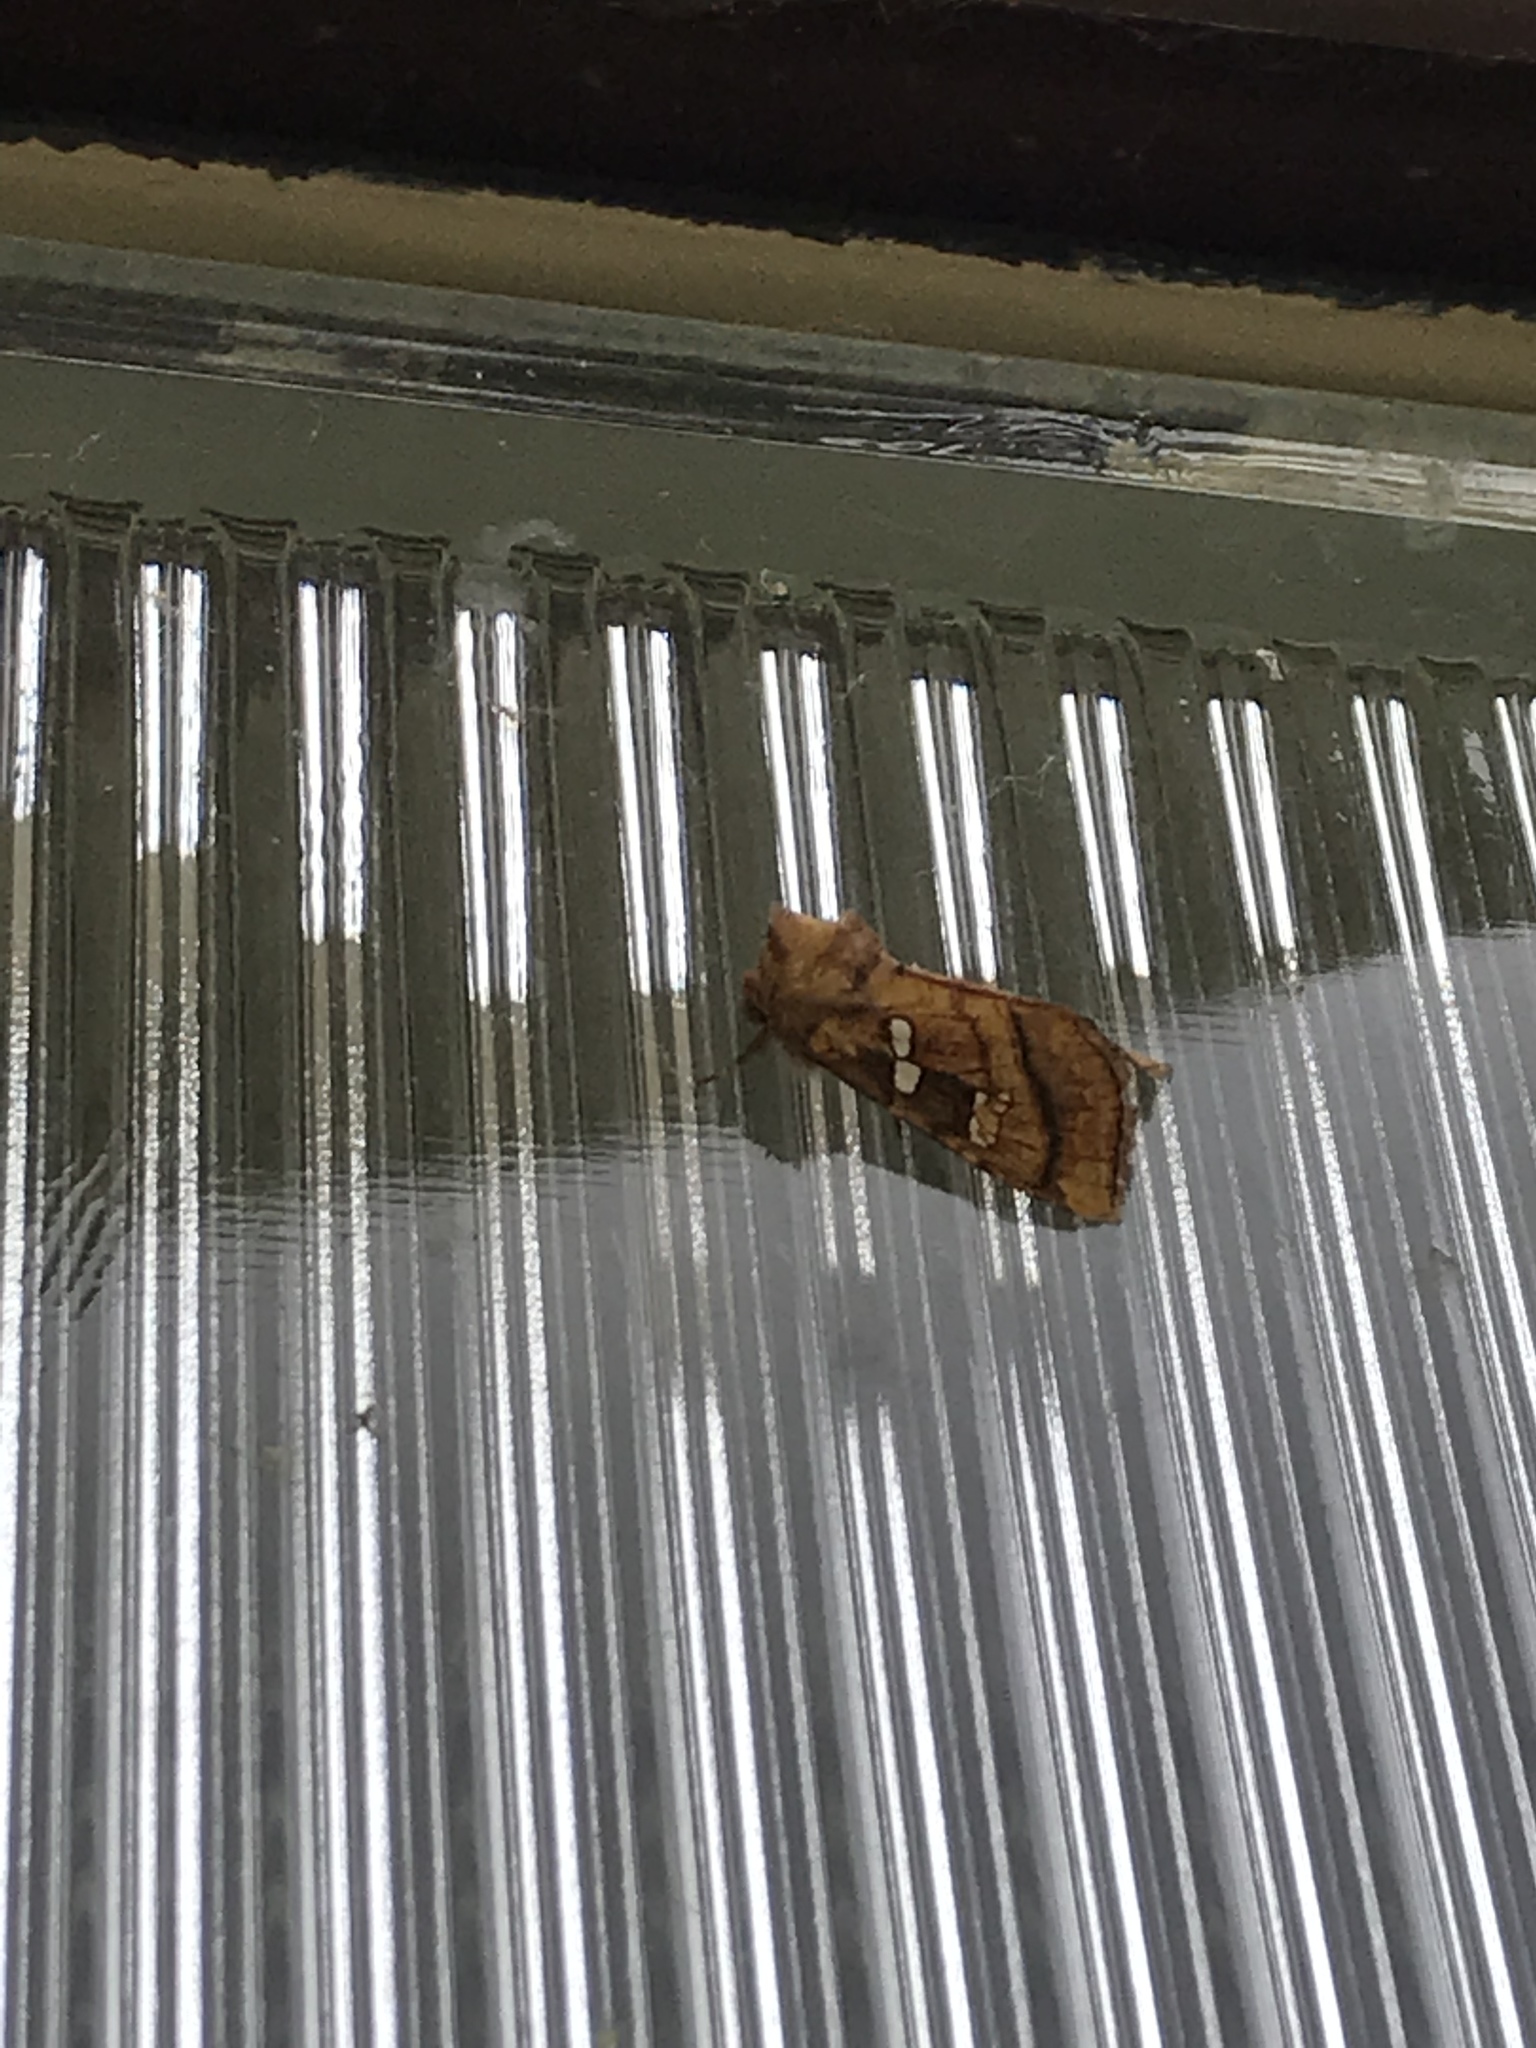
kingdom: Animalia
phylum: Arthropoda
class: Insecta
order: Lepidoptera
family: Noctuidae
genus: Papaipema
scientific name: Papaipema pterisii
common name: Bracken borer moth
